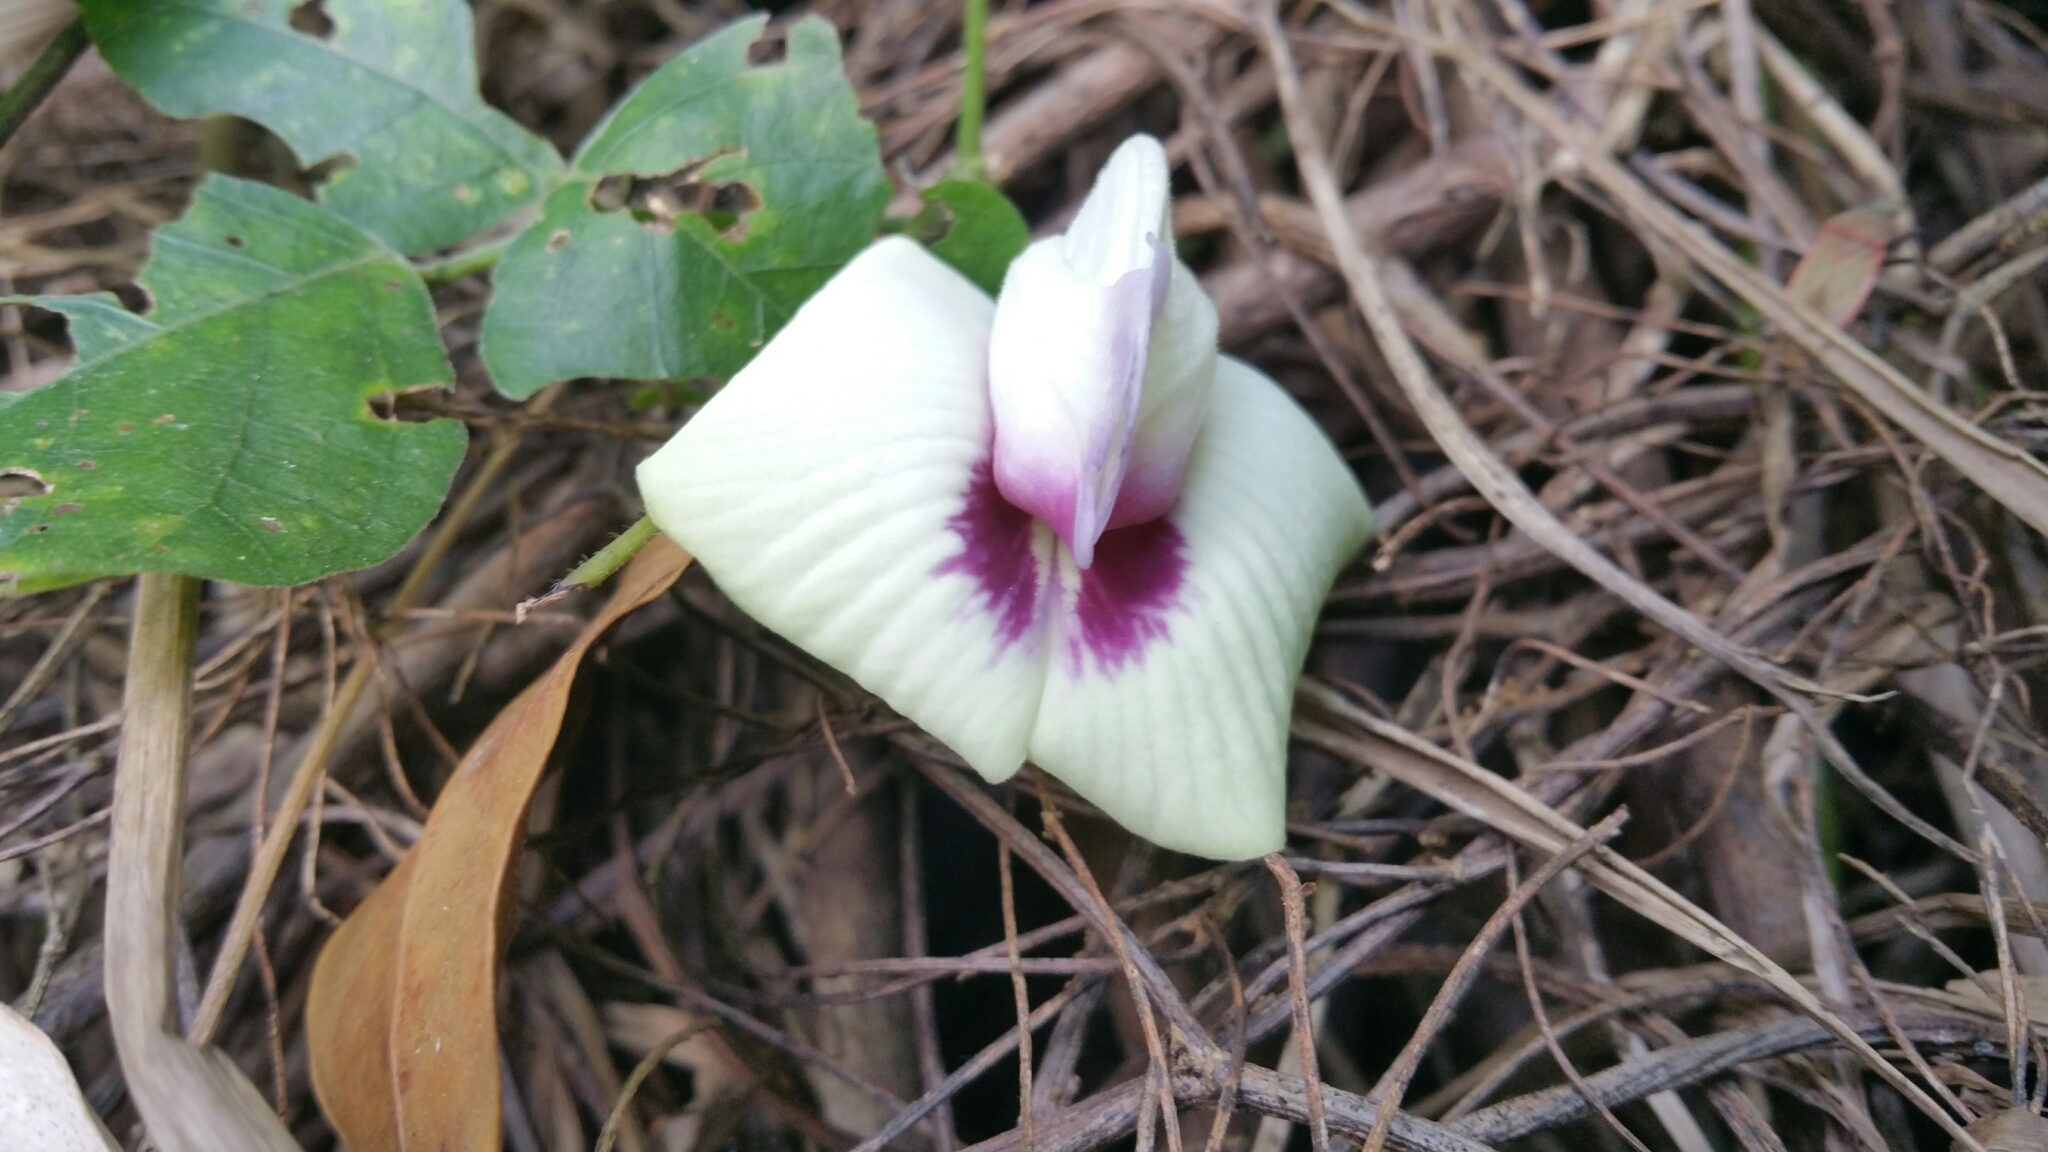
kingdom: Plantae
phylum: Tracheophyta
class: Magnoliopsida
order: Fabales
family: Fabaceae
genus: Centrosema
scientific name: Centrosema plumieri
